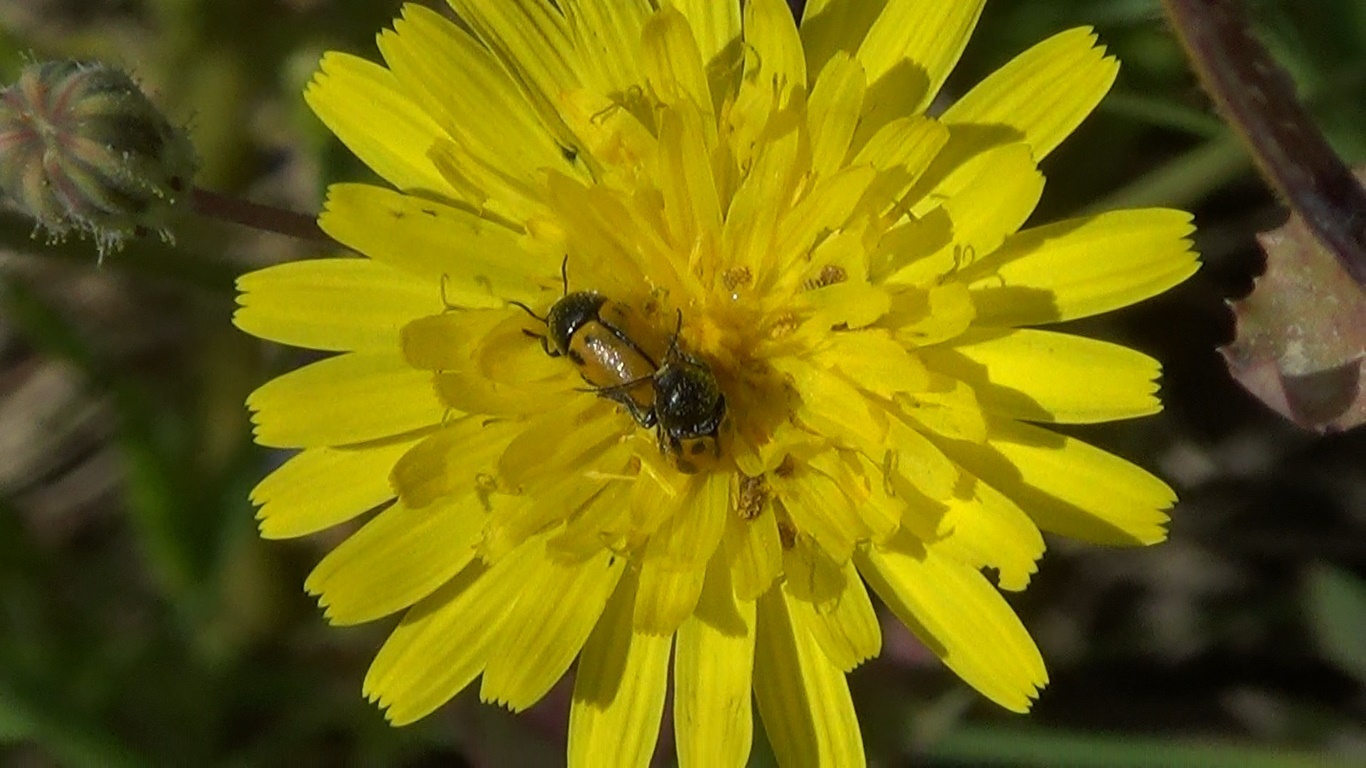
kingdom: Animalia
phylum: Arthropoda
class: Insecta
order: Coleoptera
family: Chrysomelidae
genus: Cryptocephalus
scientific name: Cryptocephalus rugicollis
